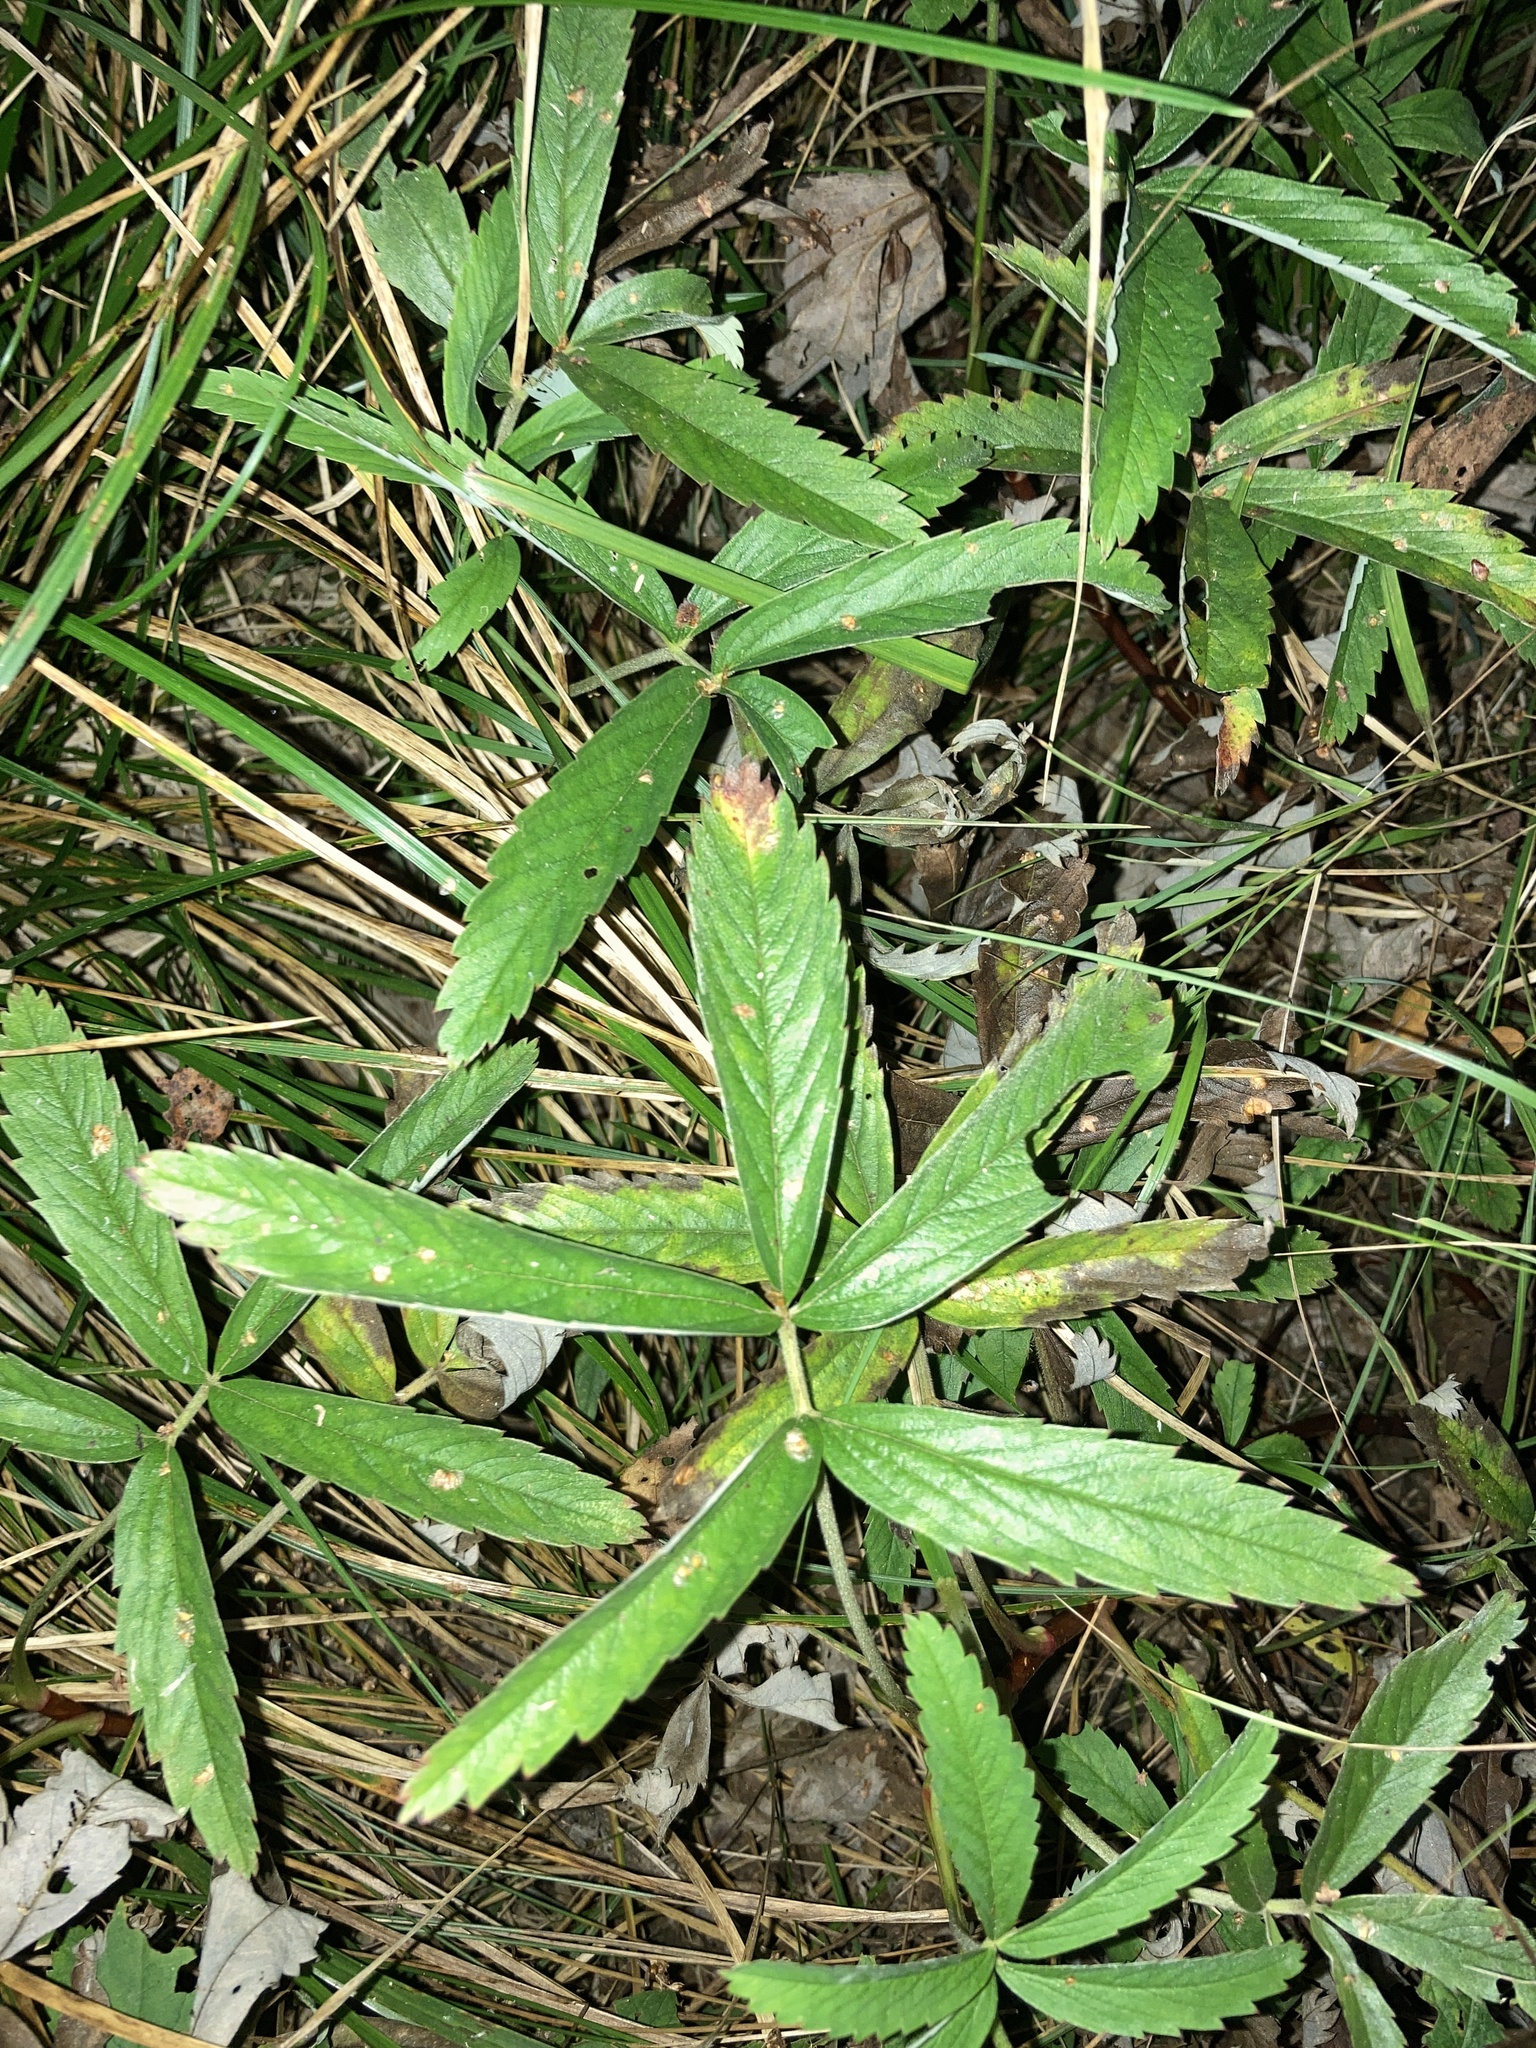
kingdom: Plantae
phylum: Tracheophyta
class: Magnoliopsida
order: Rosales
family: Rosaceae
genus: Comarum
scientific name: Comarum palustre
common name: Marsh cinquefoil
